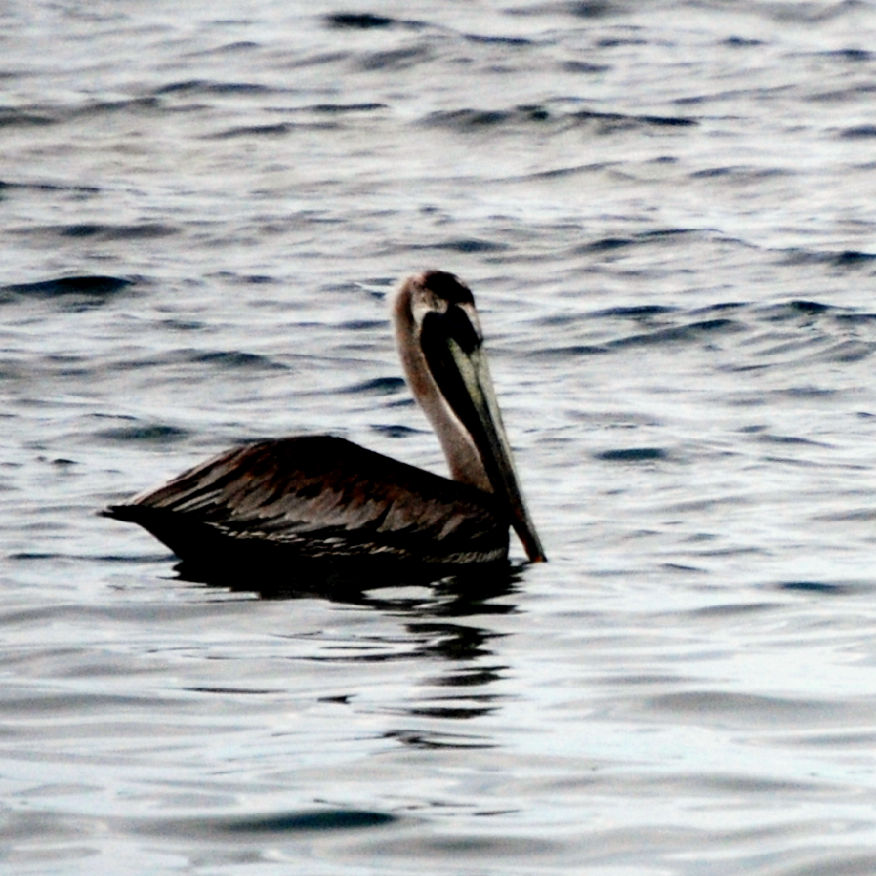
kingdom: Animalia
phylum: Chordata
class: Aves
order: Pelecaniformes
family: Pelecanidae
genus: Pelecanus
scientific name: Pelecanus occidentalis
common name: Brown pelican
